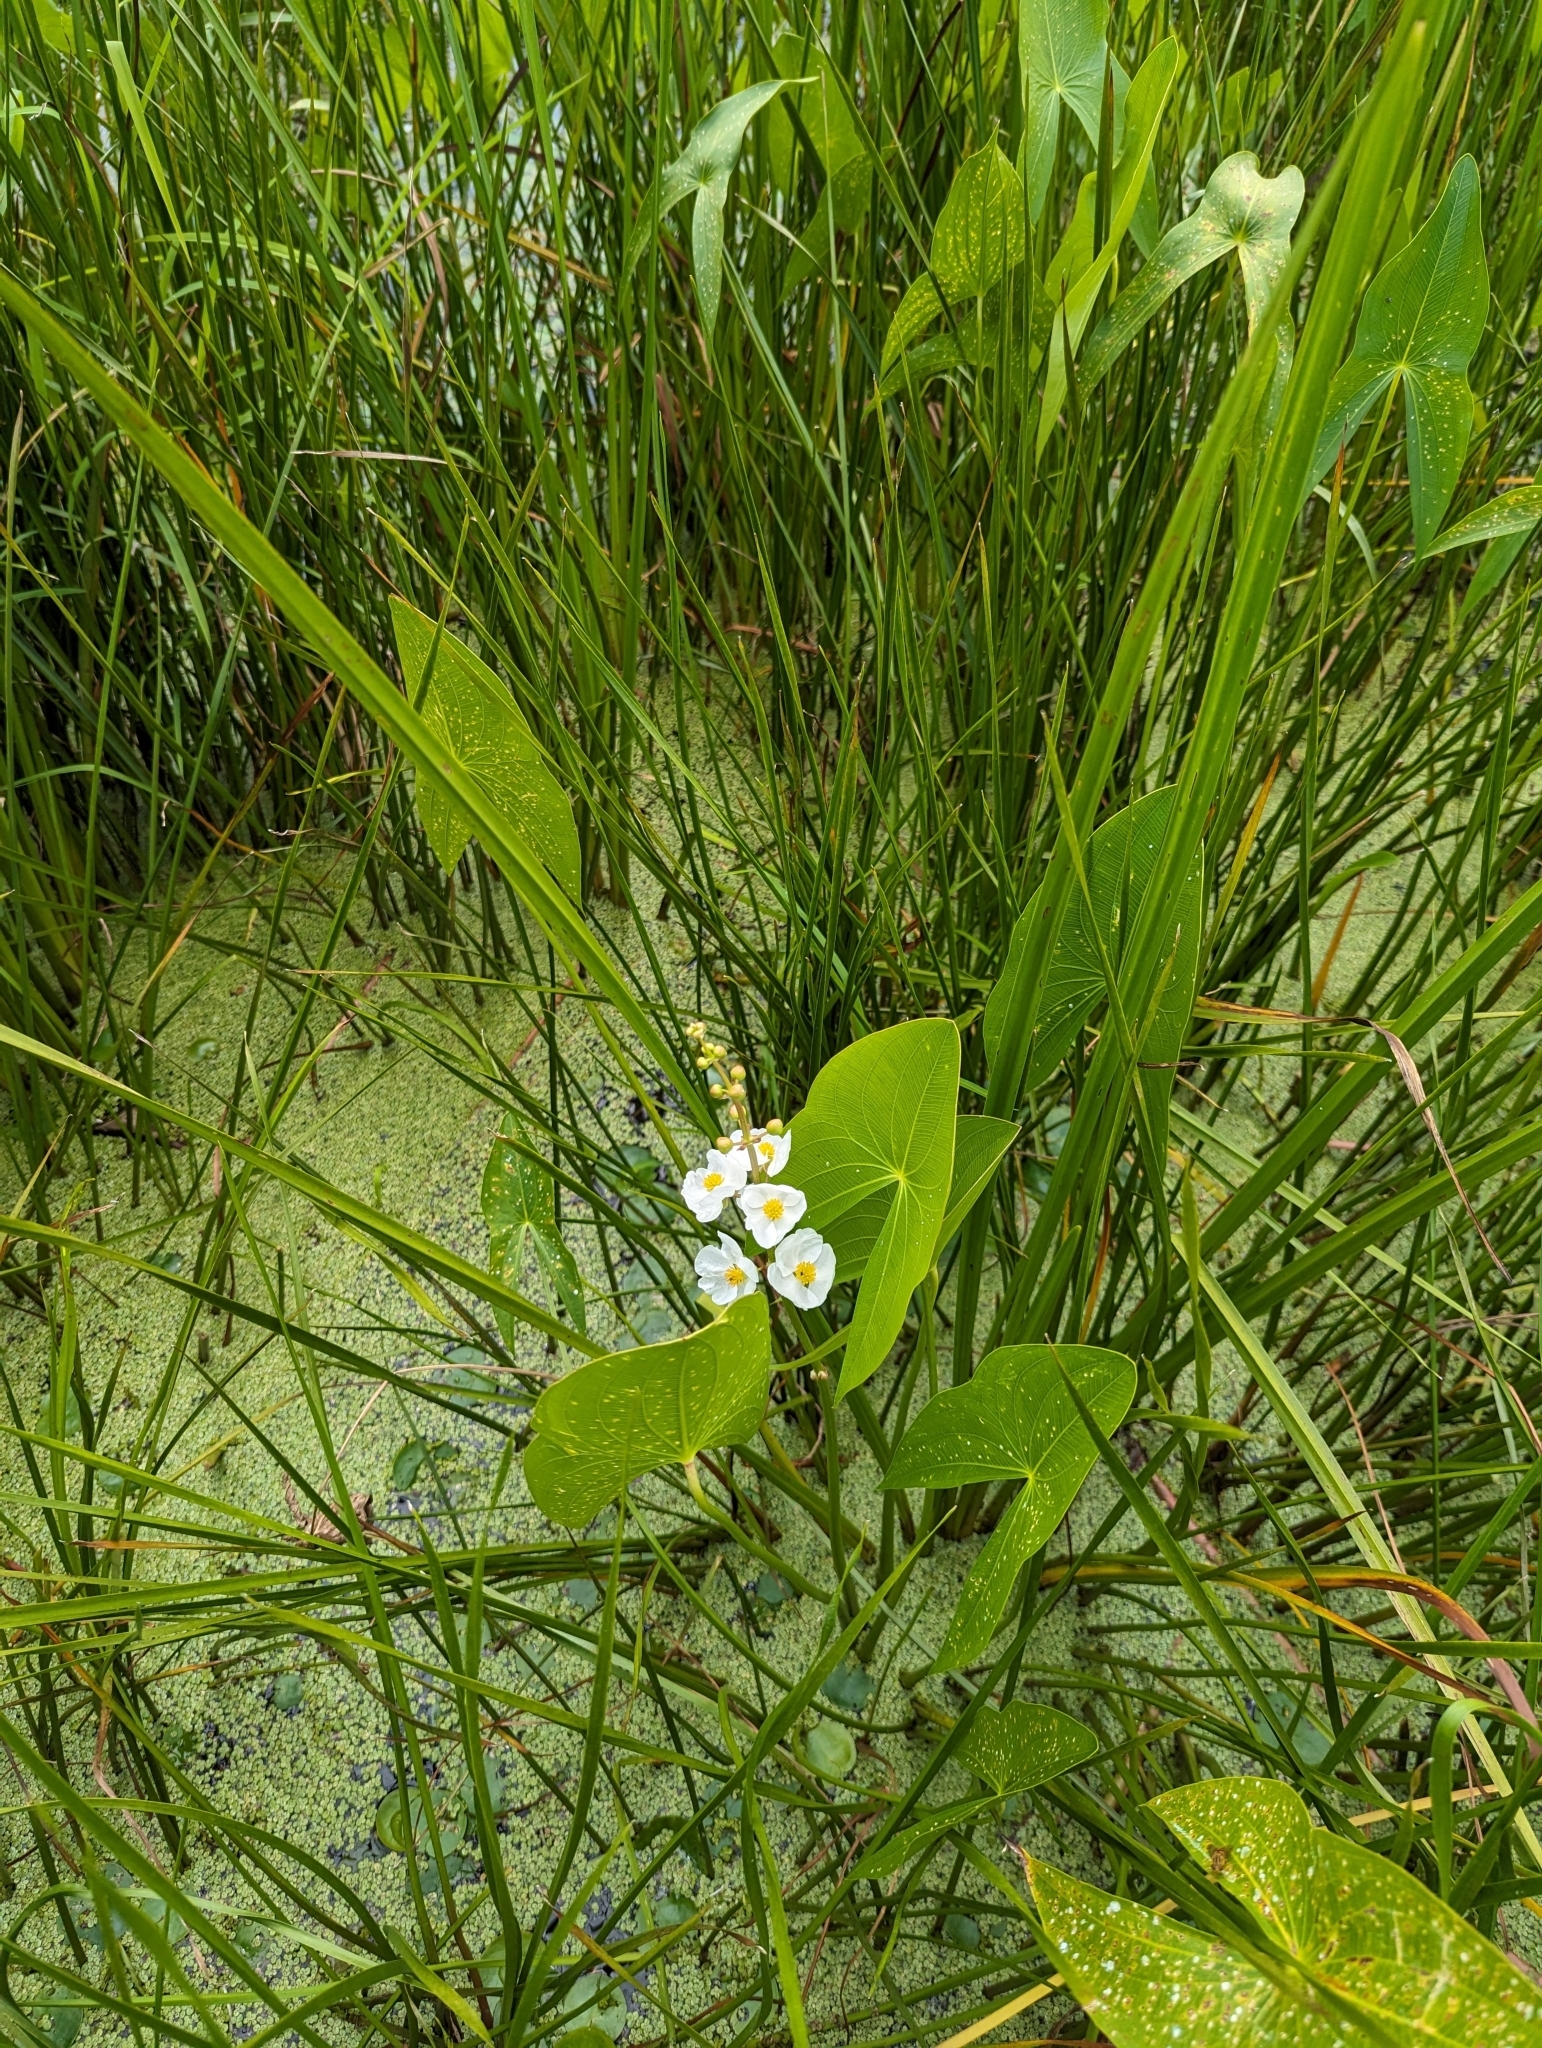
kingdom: Plantae
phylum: Tracheophyta
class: Liliopsida
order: Alismatales
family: Alismataceae
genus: Sagittaria
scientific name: Sagittaria latifolia
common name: Duck-potato
